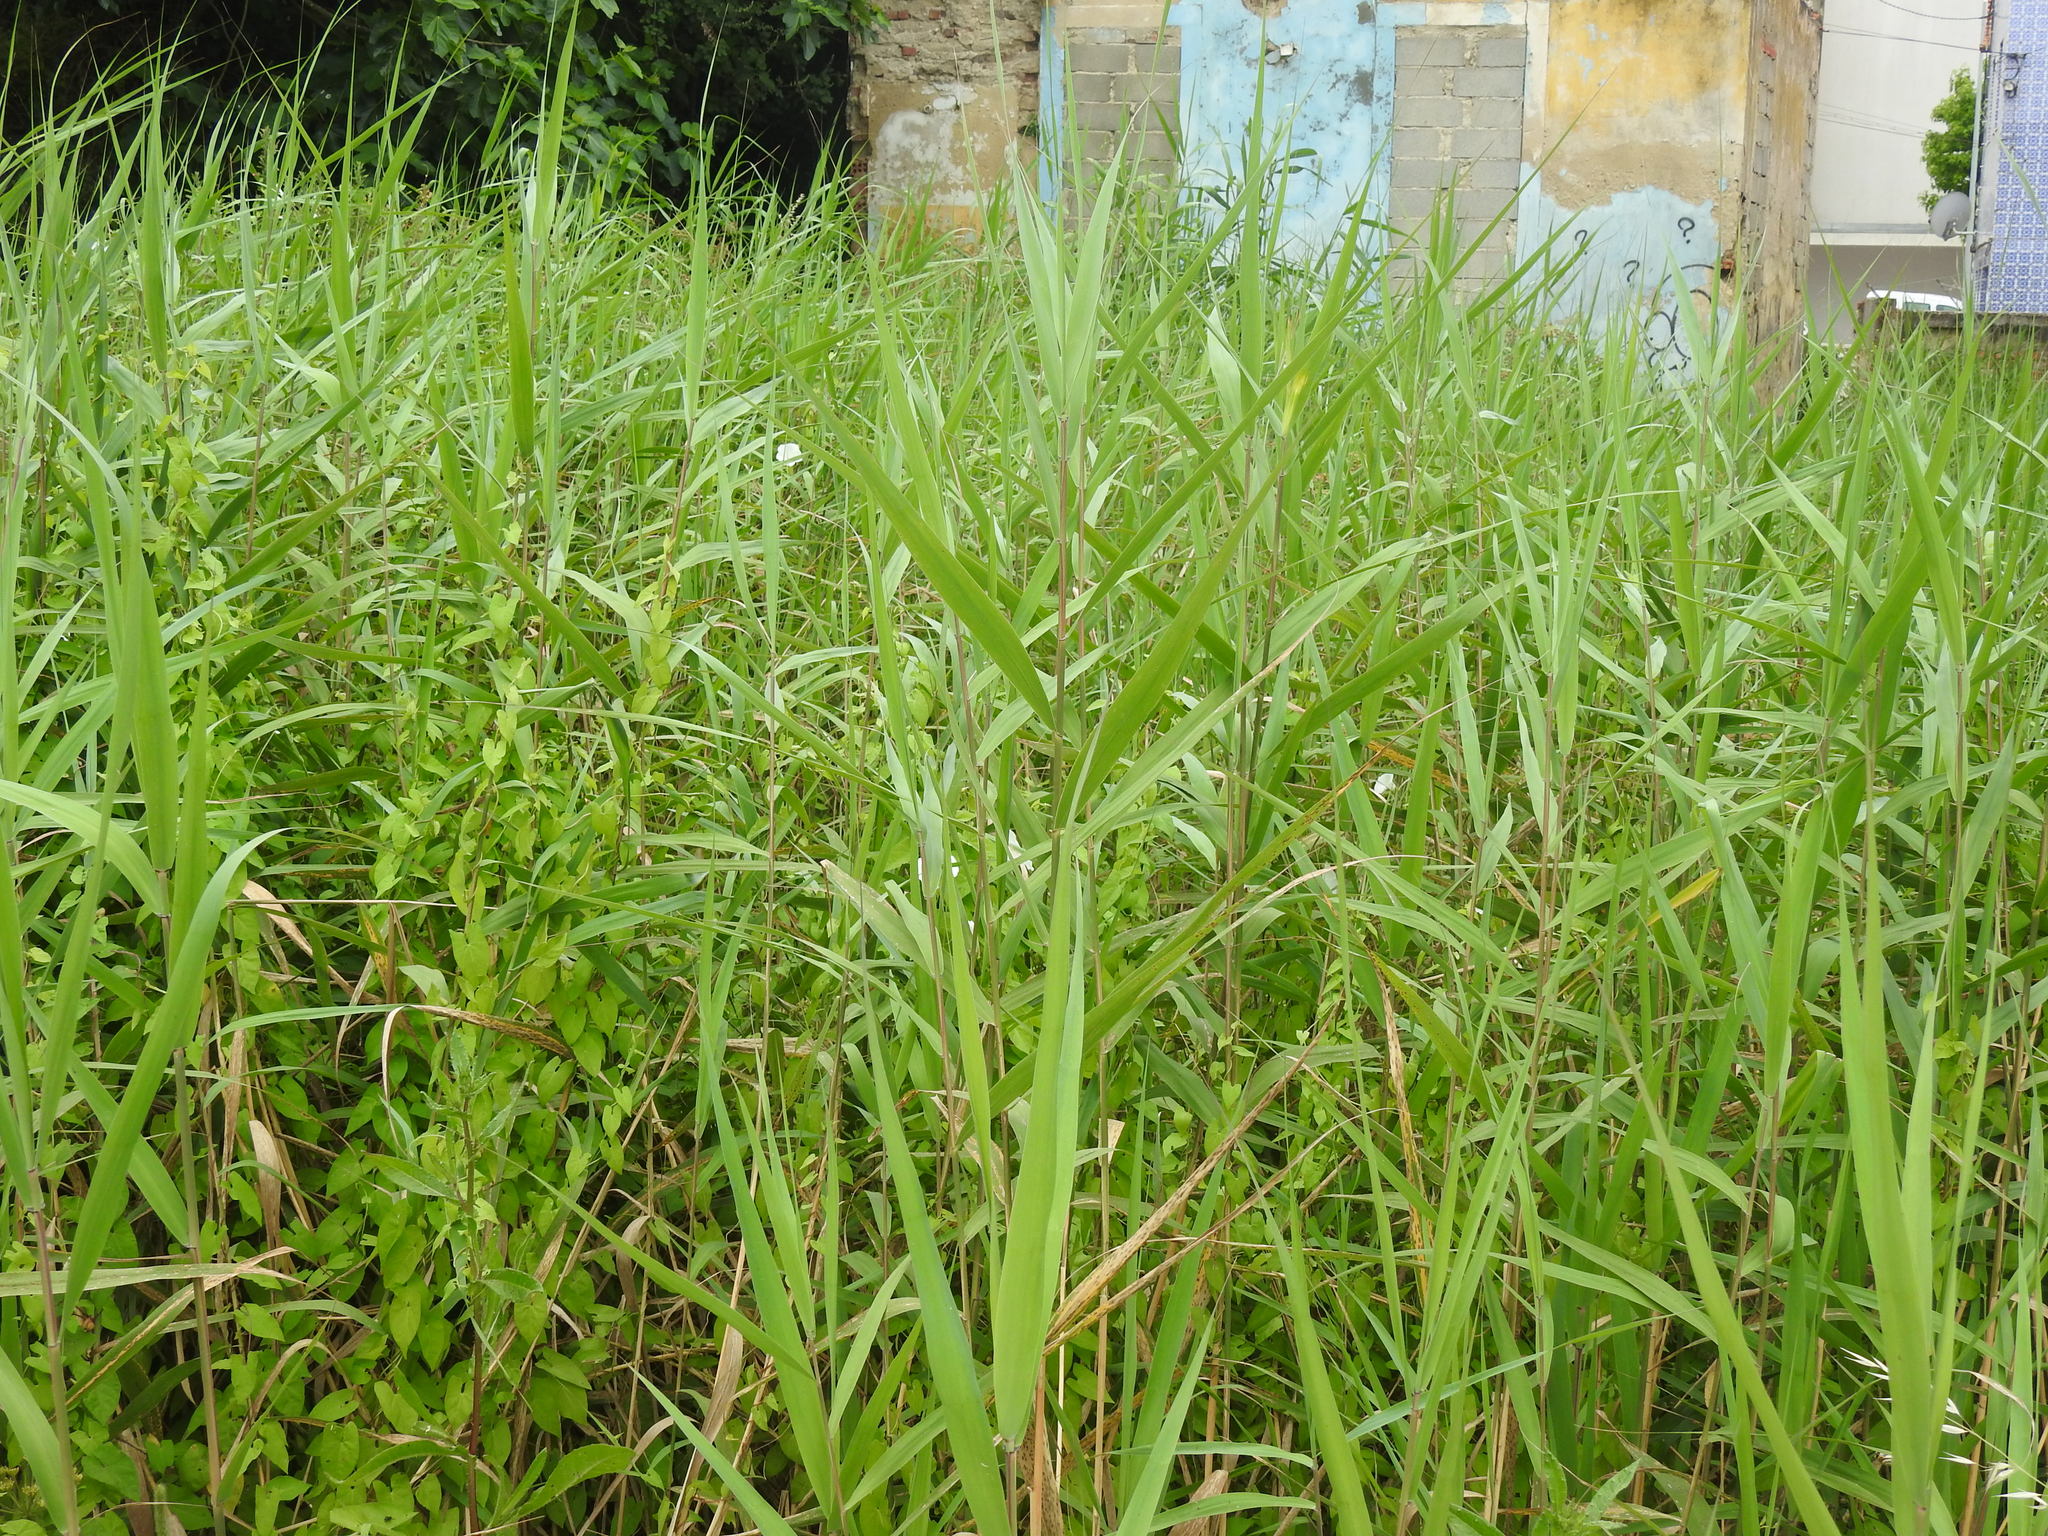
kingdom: Plantae
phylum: Tracheophyta
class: Liliopsida
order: Poales
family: Poaceae
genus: Phragmites
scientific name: Phragmites australis
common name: Common reed
